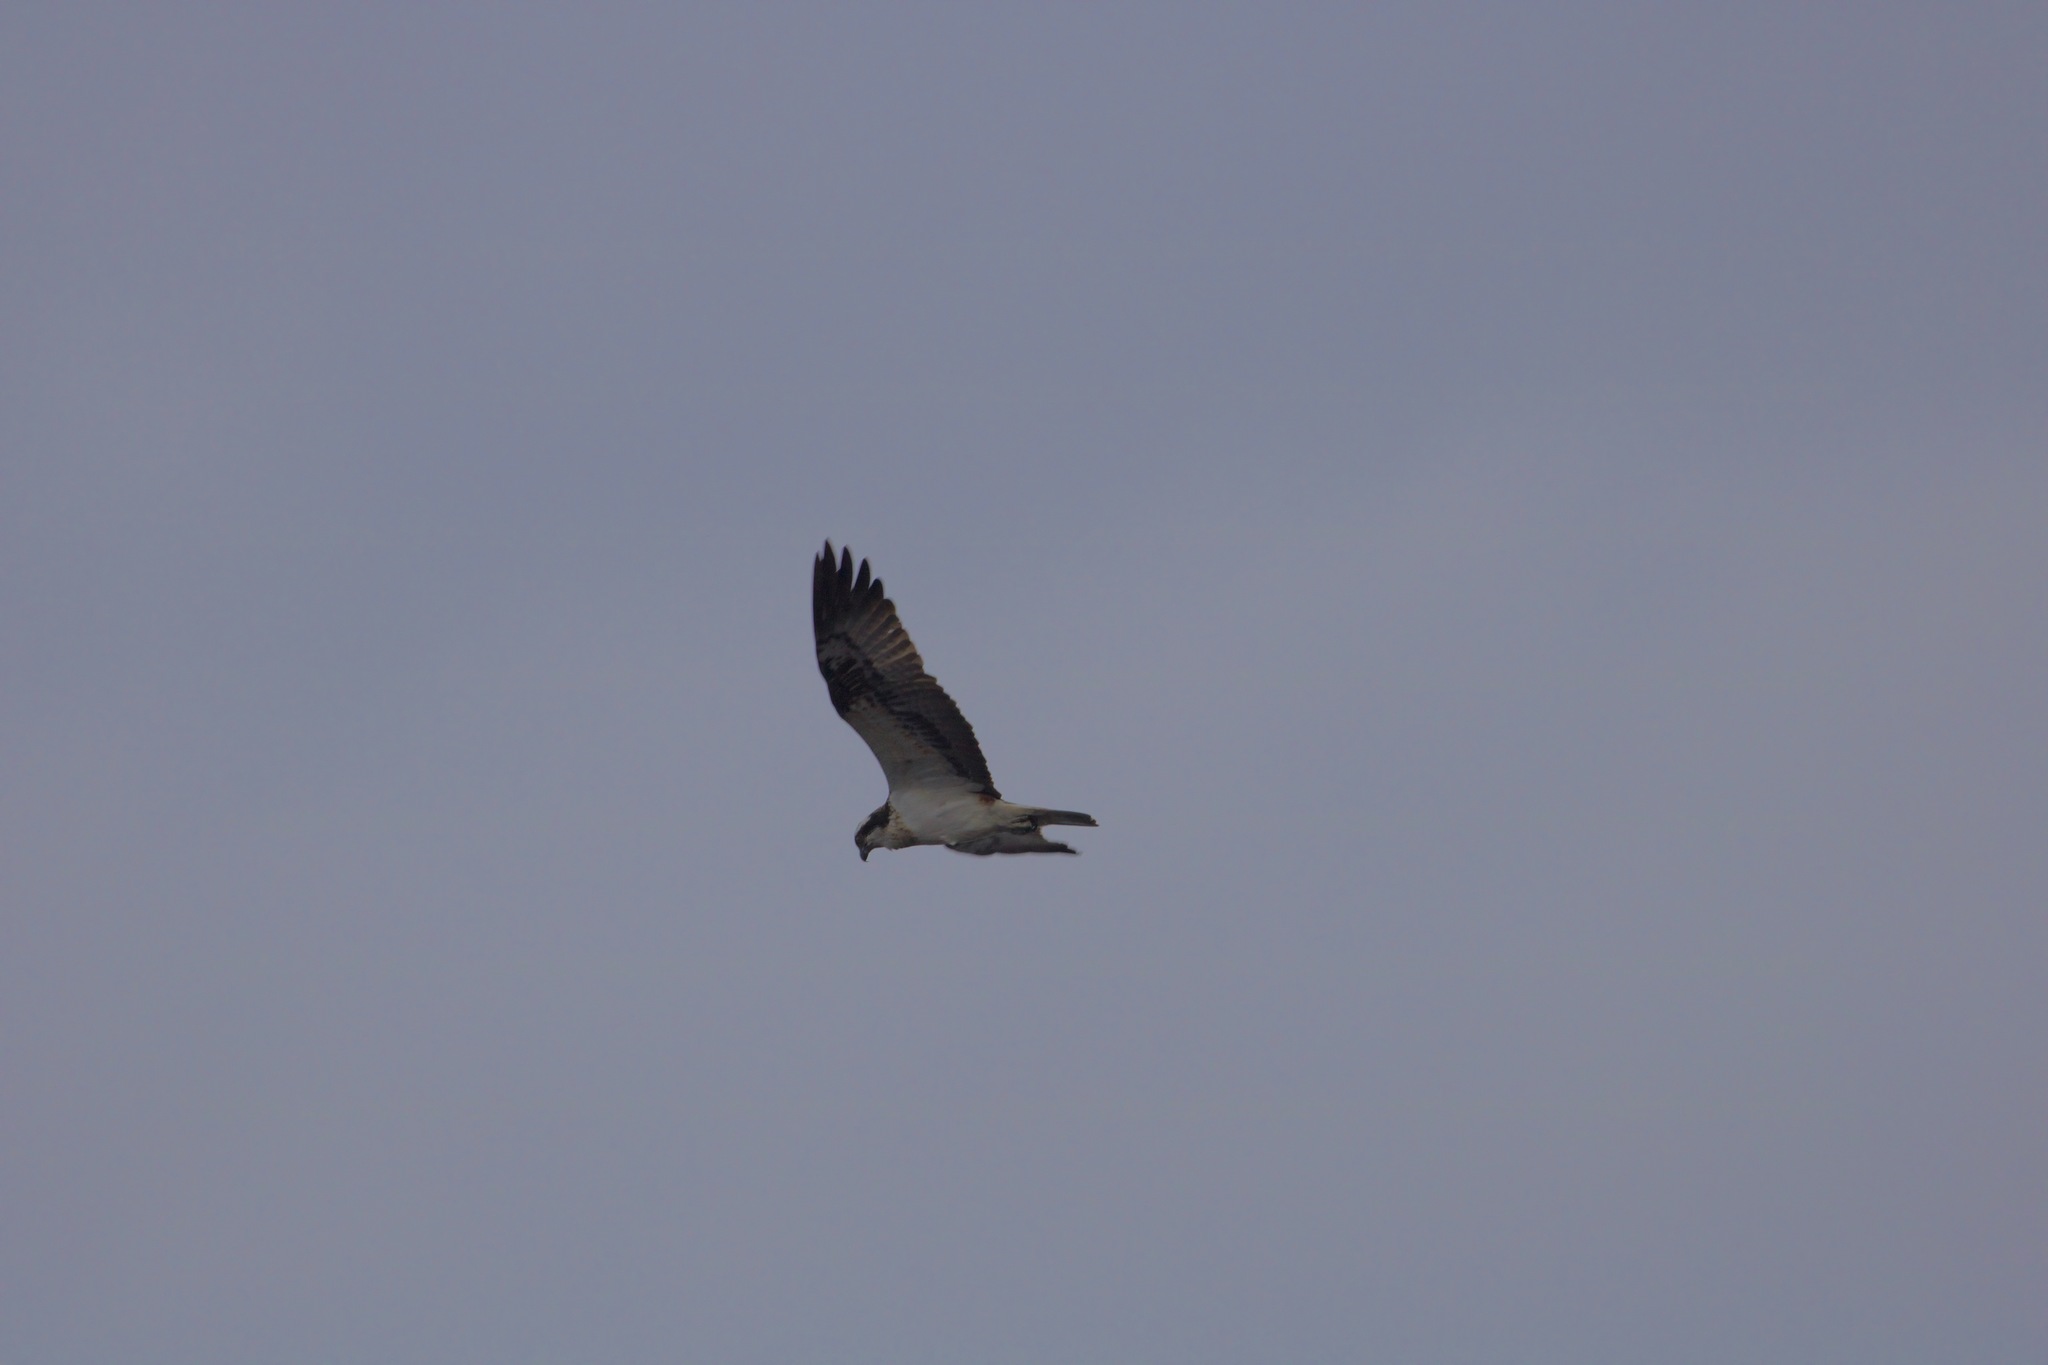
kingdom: Animalia
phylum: Chordata
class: Aves
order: Accipitriformes
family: Pandionidae
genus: Pandion
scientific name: Pandion haliaetus
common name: Osprey
